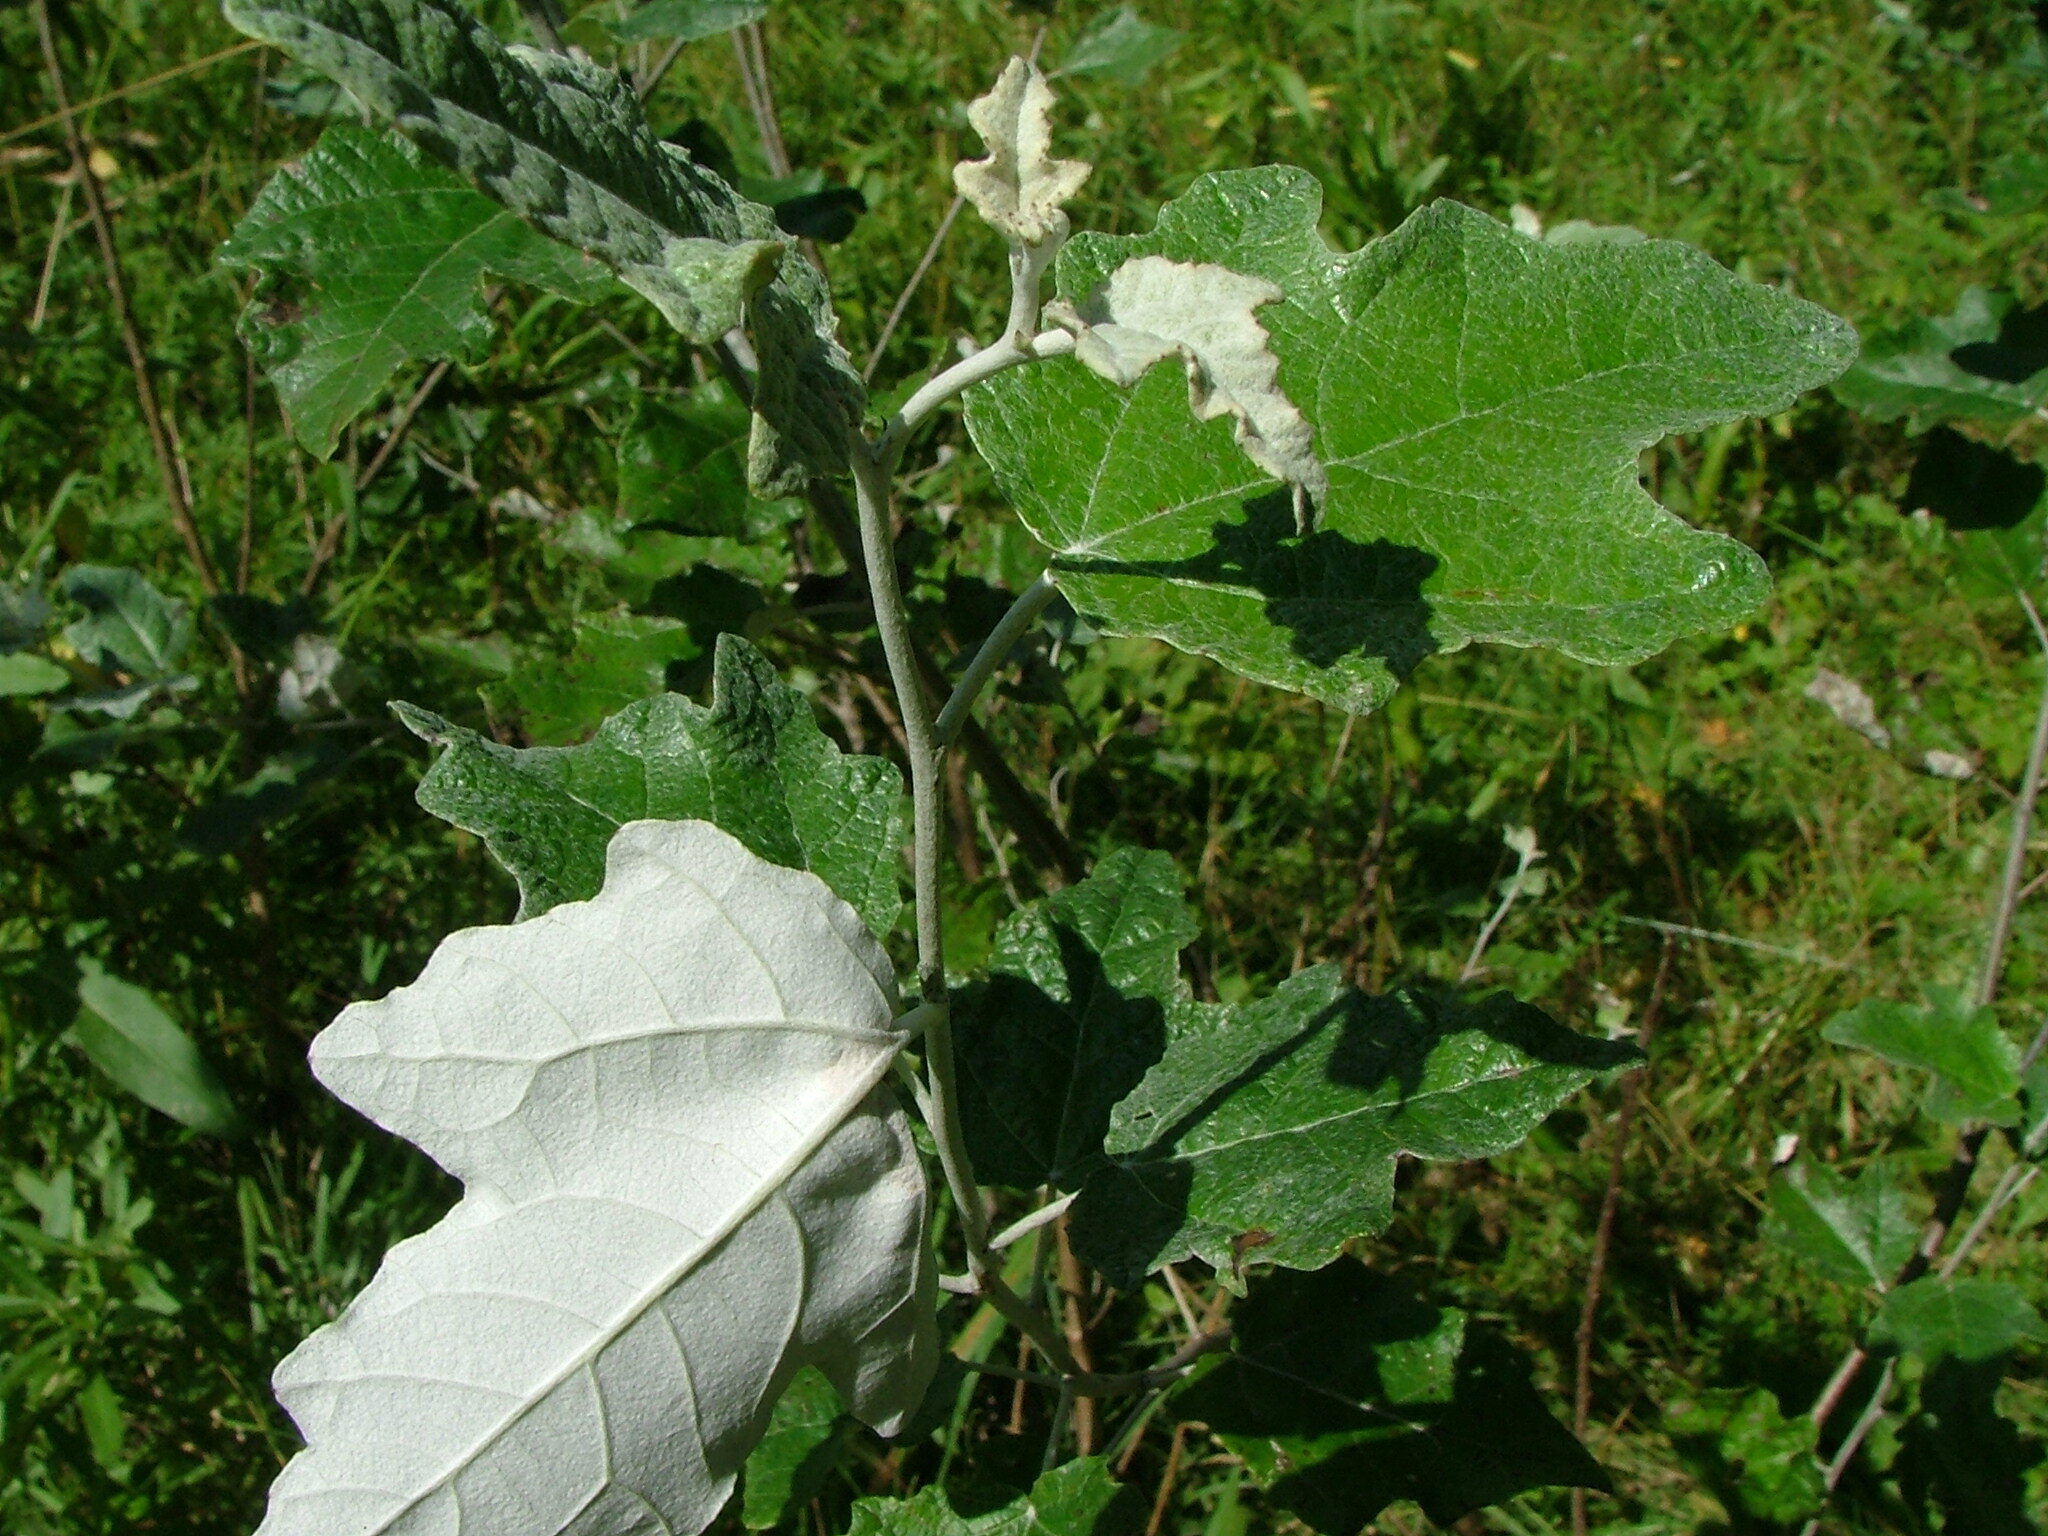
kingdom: Plantae
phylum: Tracheophyta
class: Magnoliopsida
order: Malpighiales
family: Salicaceae
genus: Populus
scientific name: Populus alba
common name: White poplar
